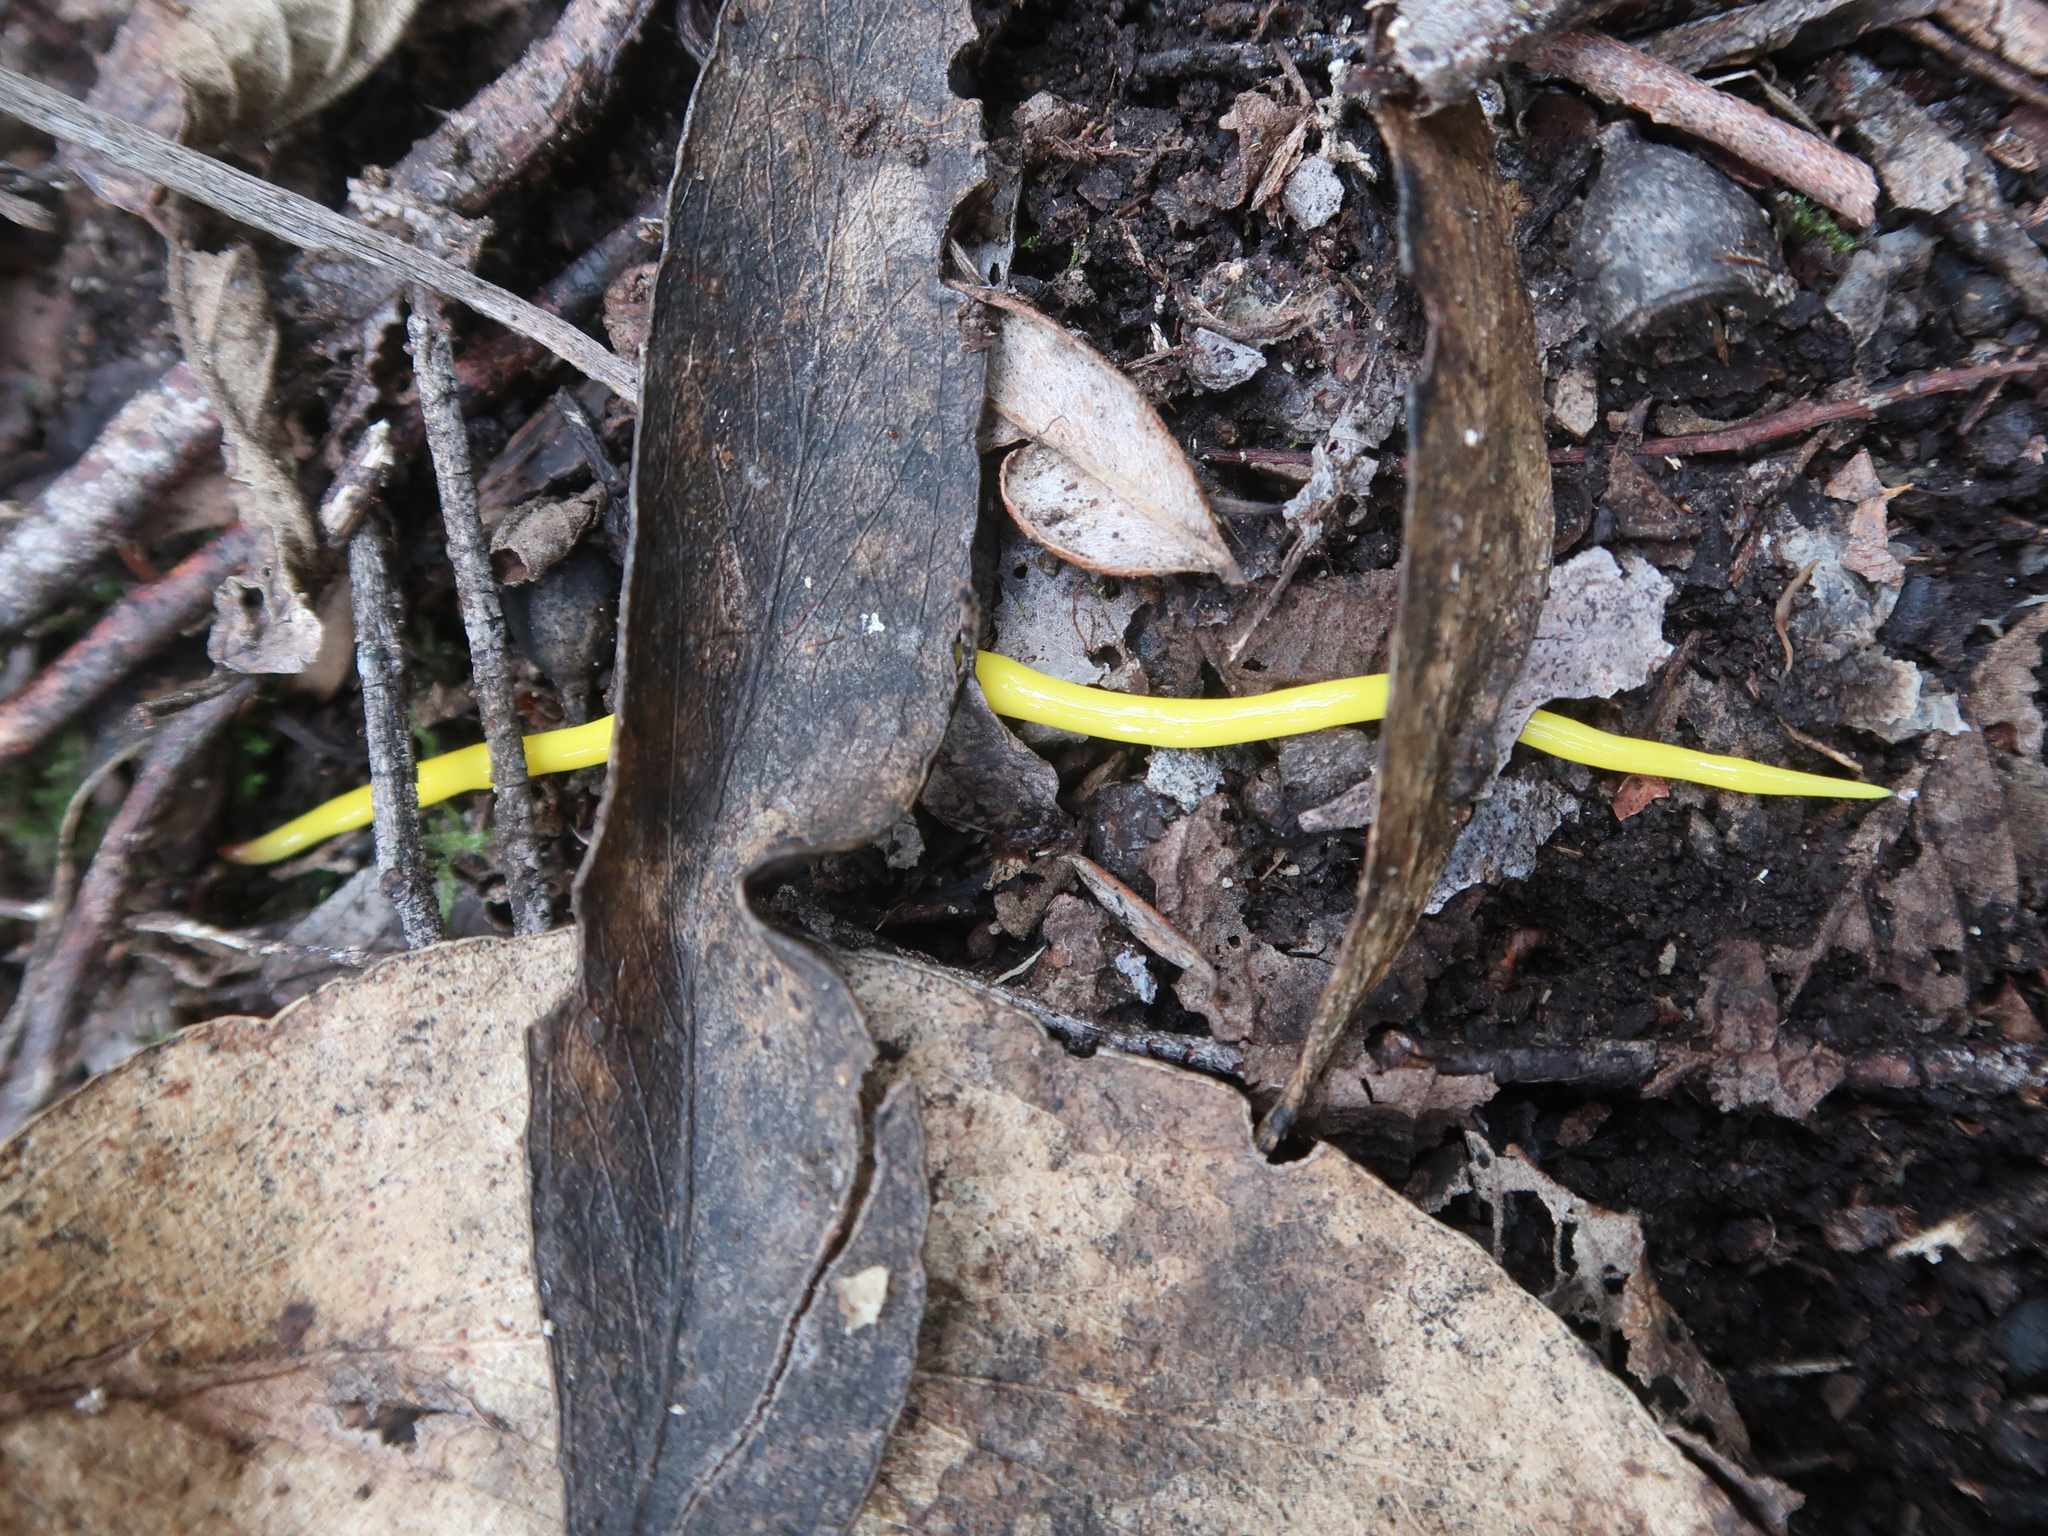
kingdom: Animalia
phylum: Platyhelminthes
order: Tricladida
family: Geoplanidae
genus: Fletchamia
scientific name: Fletchamia sugdeni
